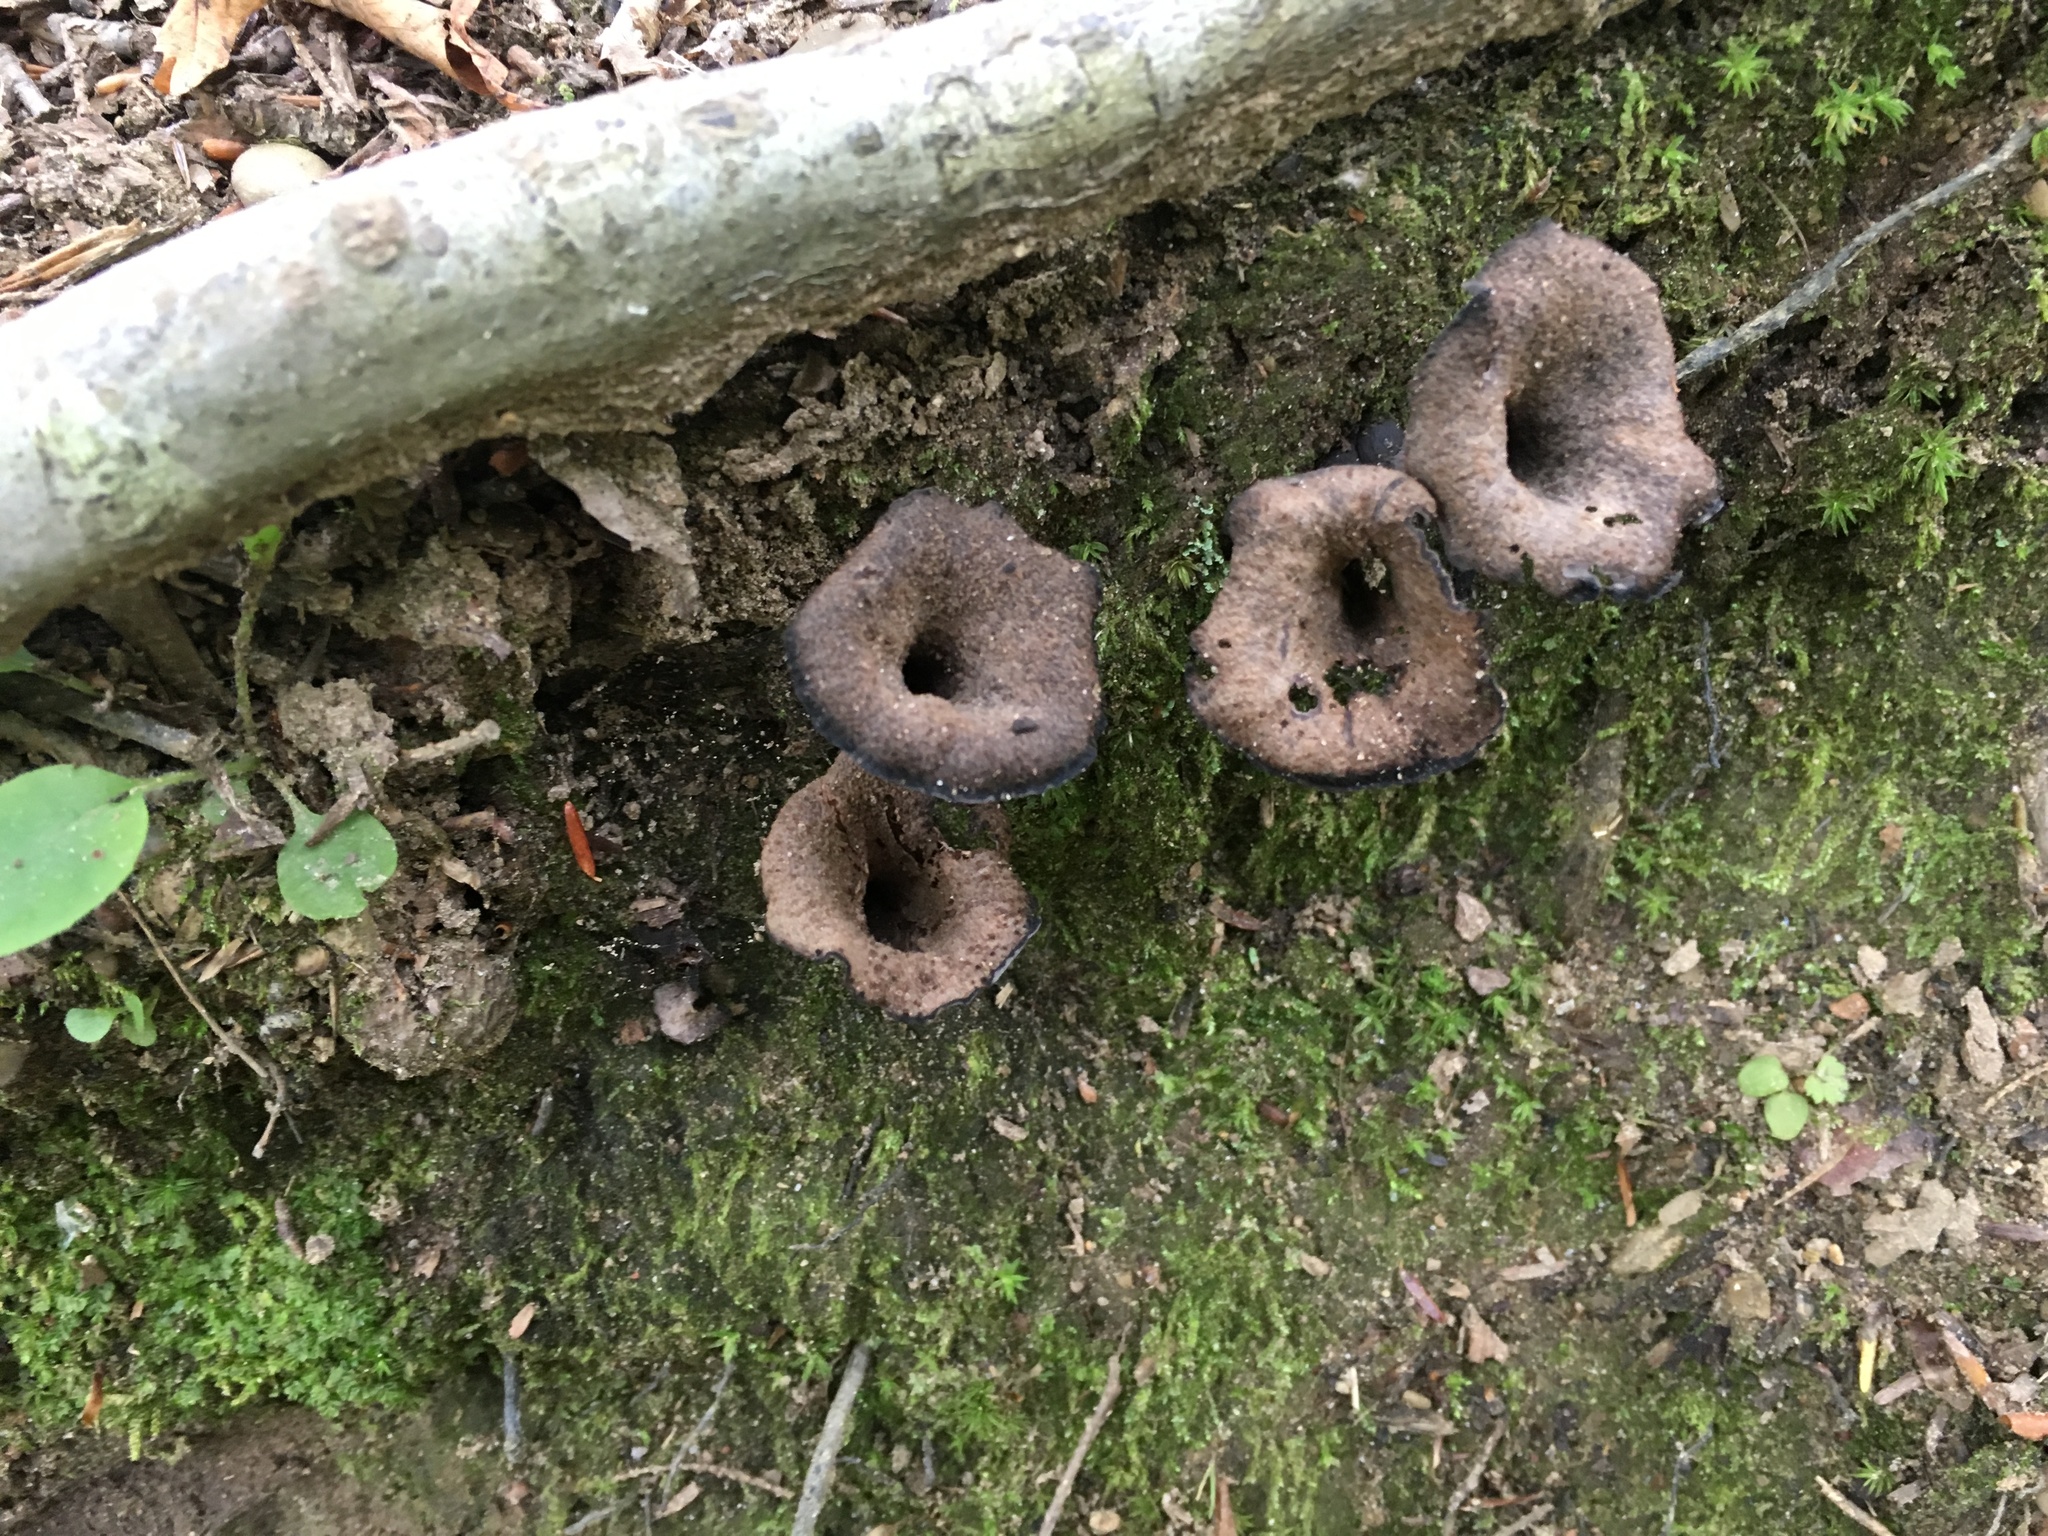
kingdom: Fungi
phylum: Basidiomycota
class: Agaricomycetes
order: Cantharellales
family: Hydnaceae
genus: Craterellus
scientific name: Craterellus cornucopioides
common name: Horn of plenty
